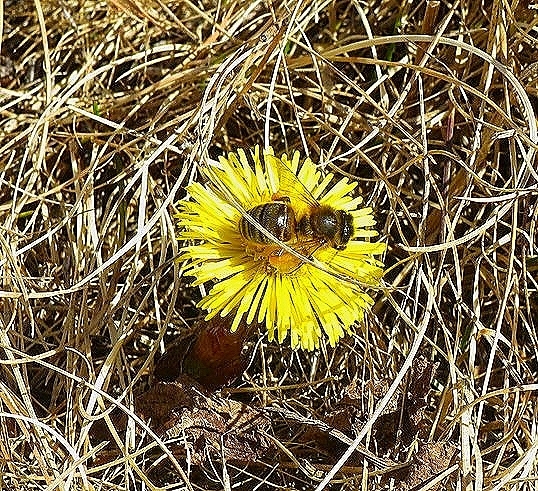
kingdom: Animalia
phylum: Arthropoda
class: Insecta
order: Hymenoptera
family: Apidae
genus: Apis
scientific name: Apis mellifera
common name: Honey bee
